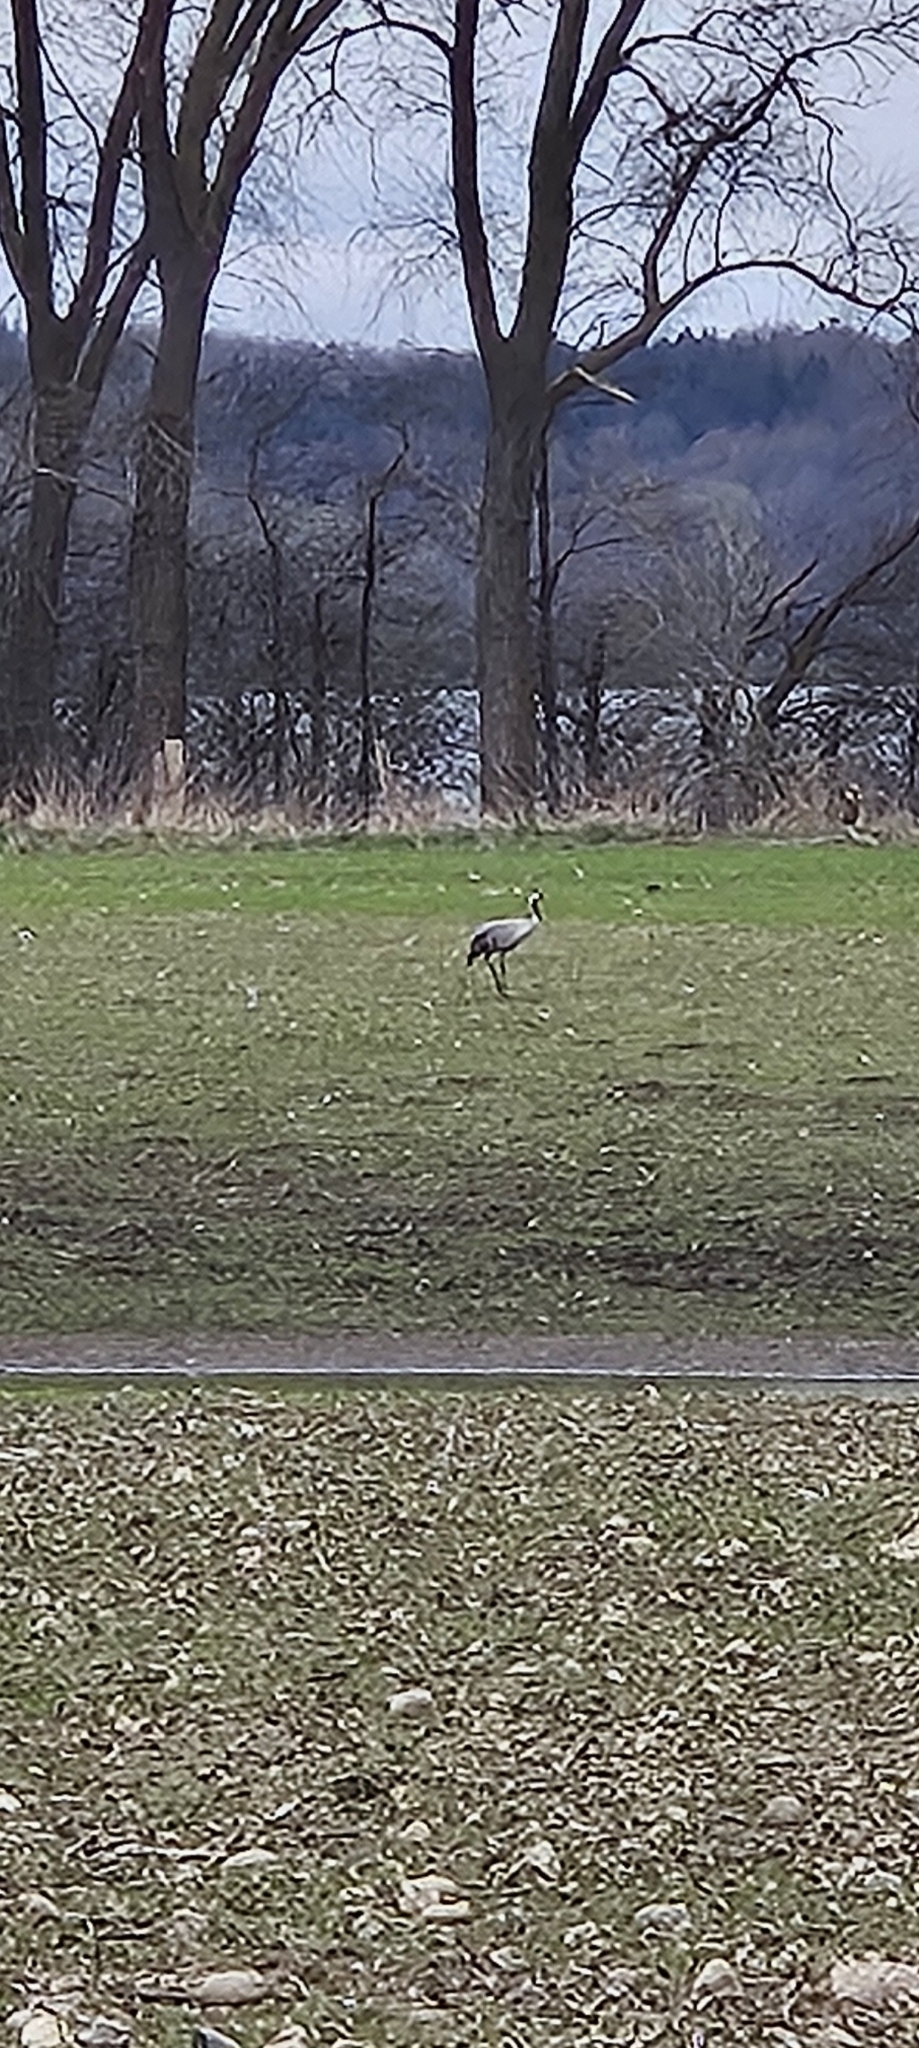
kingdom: Animalia
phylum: Chordata
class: Aves
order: Gruiformes
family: Gruidae
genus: Grus
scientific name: Grus grus
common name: Common crane
